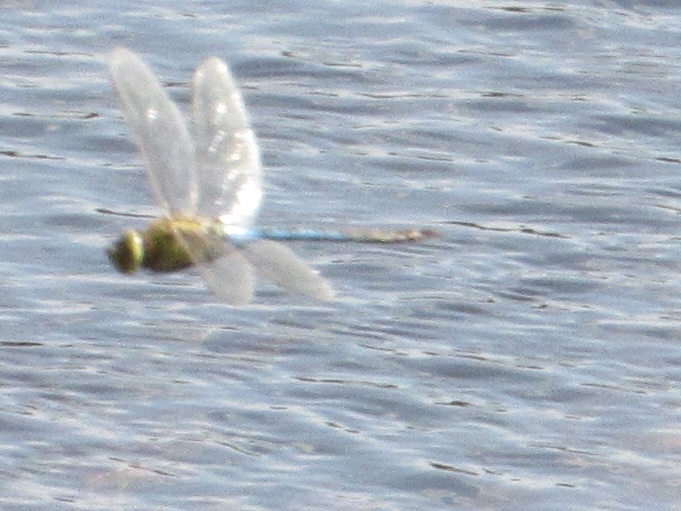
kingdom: Animalia
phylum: Arthropoda
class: Insecta
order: Odonata
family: Aeshnidae
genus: Anax
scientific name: Anax junius
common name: Common green darner
